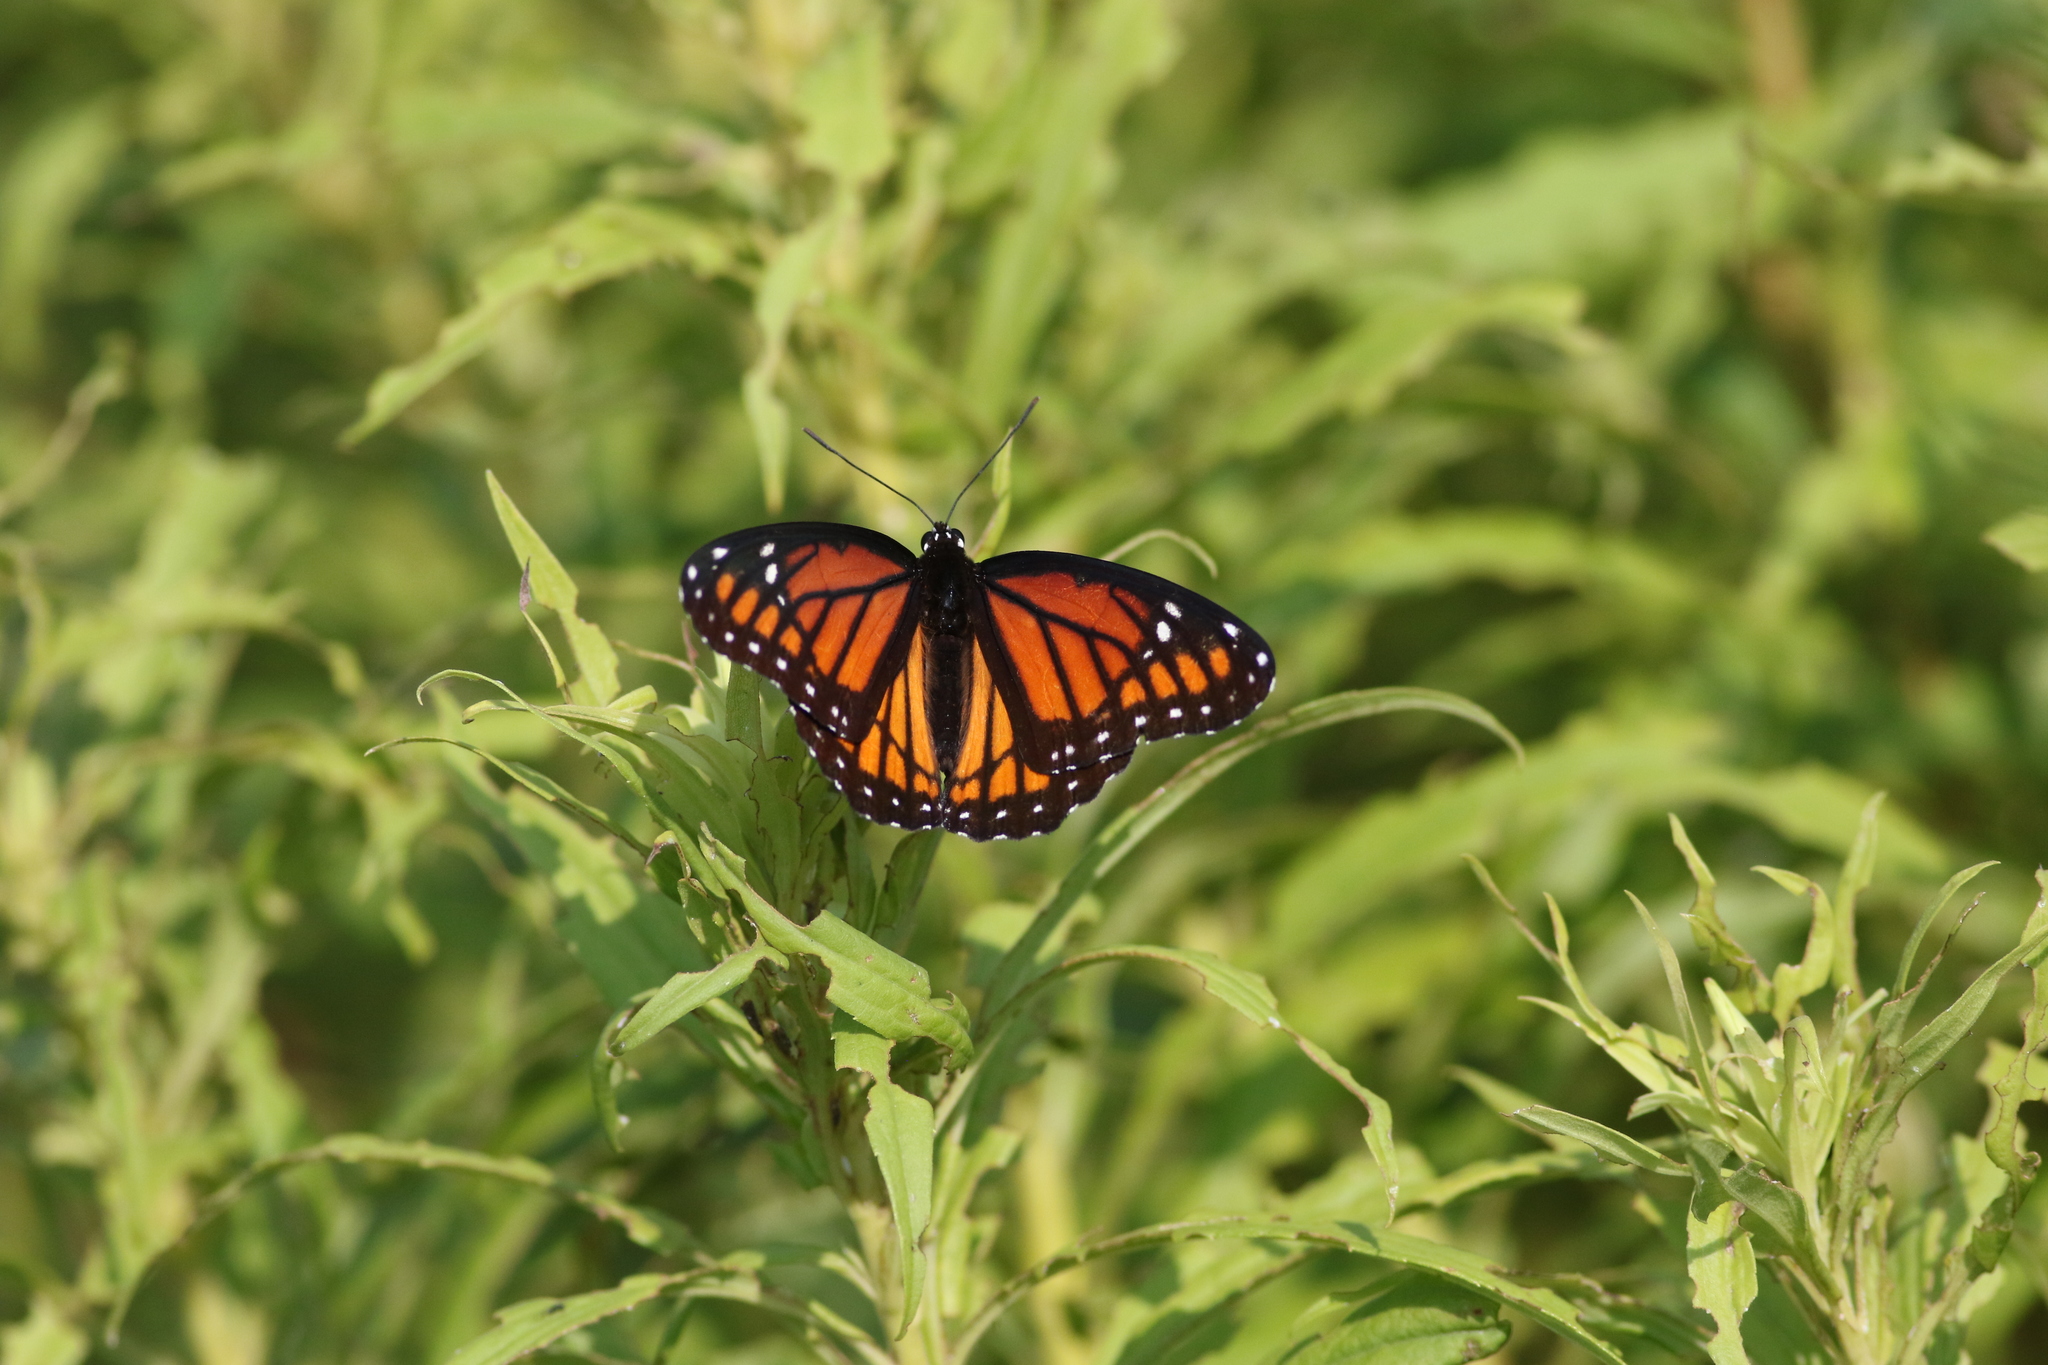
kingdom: Animalia
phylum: Arthropoda
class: Insecta
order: Lepidoptera
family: Nymphalidae
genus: Limenitis
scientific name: Limenitis archippus
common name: Viceroy
